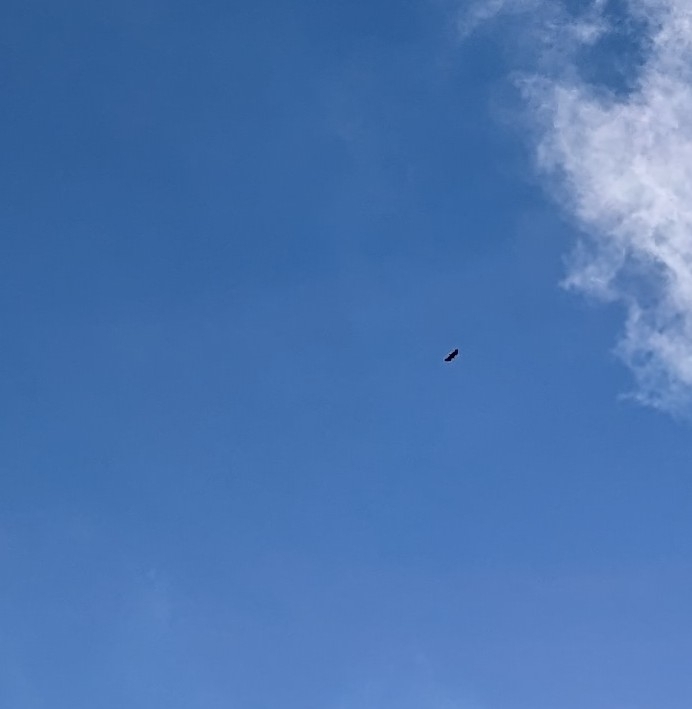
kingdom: Animalia
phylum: Chordata
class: Aves
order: Accipitriformes
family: Accipitridae
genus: Haliaeetus
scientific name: Haliaeetus leucocephalus
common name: Bald eagle
